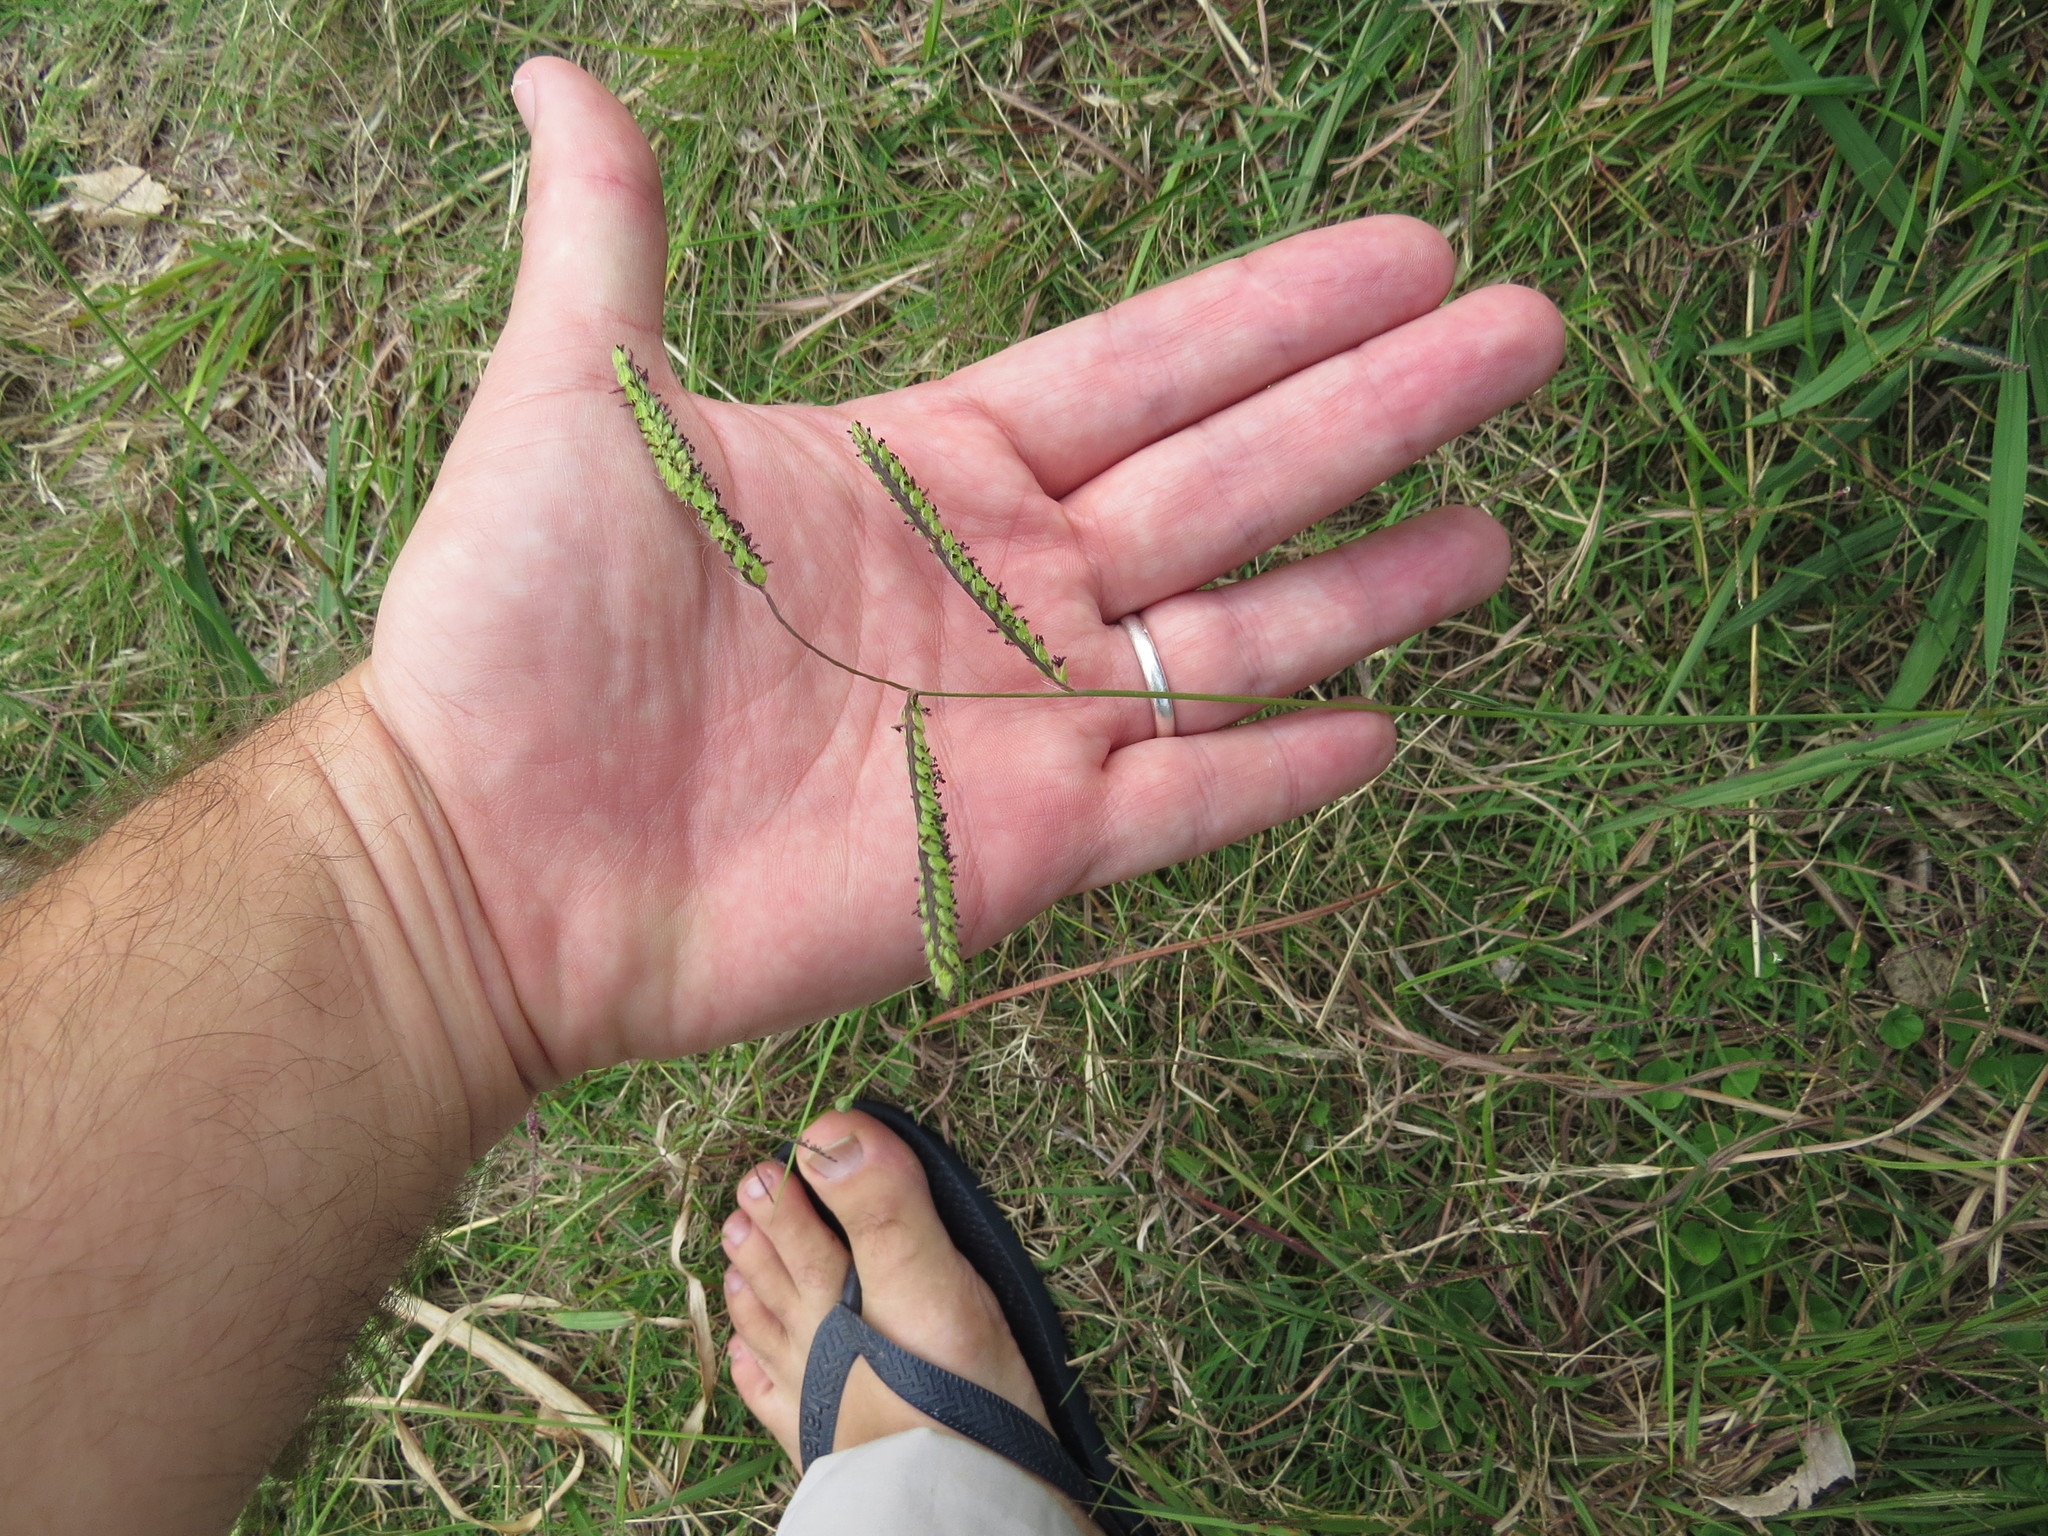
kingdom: Plantae
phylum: Tracheophyta
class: Liliopsida
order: Poales
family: Poaceae
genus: Paspalum
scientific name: Paspalum dilatatum
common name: Dallisgrass
